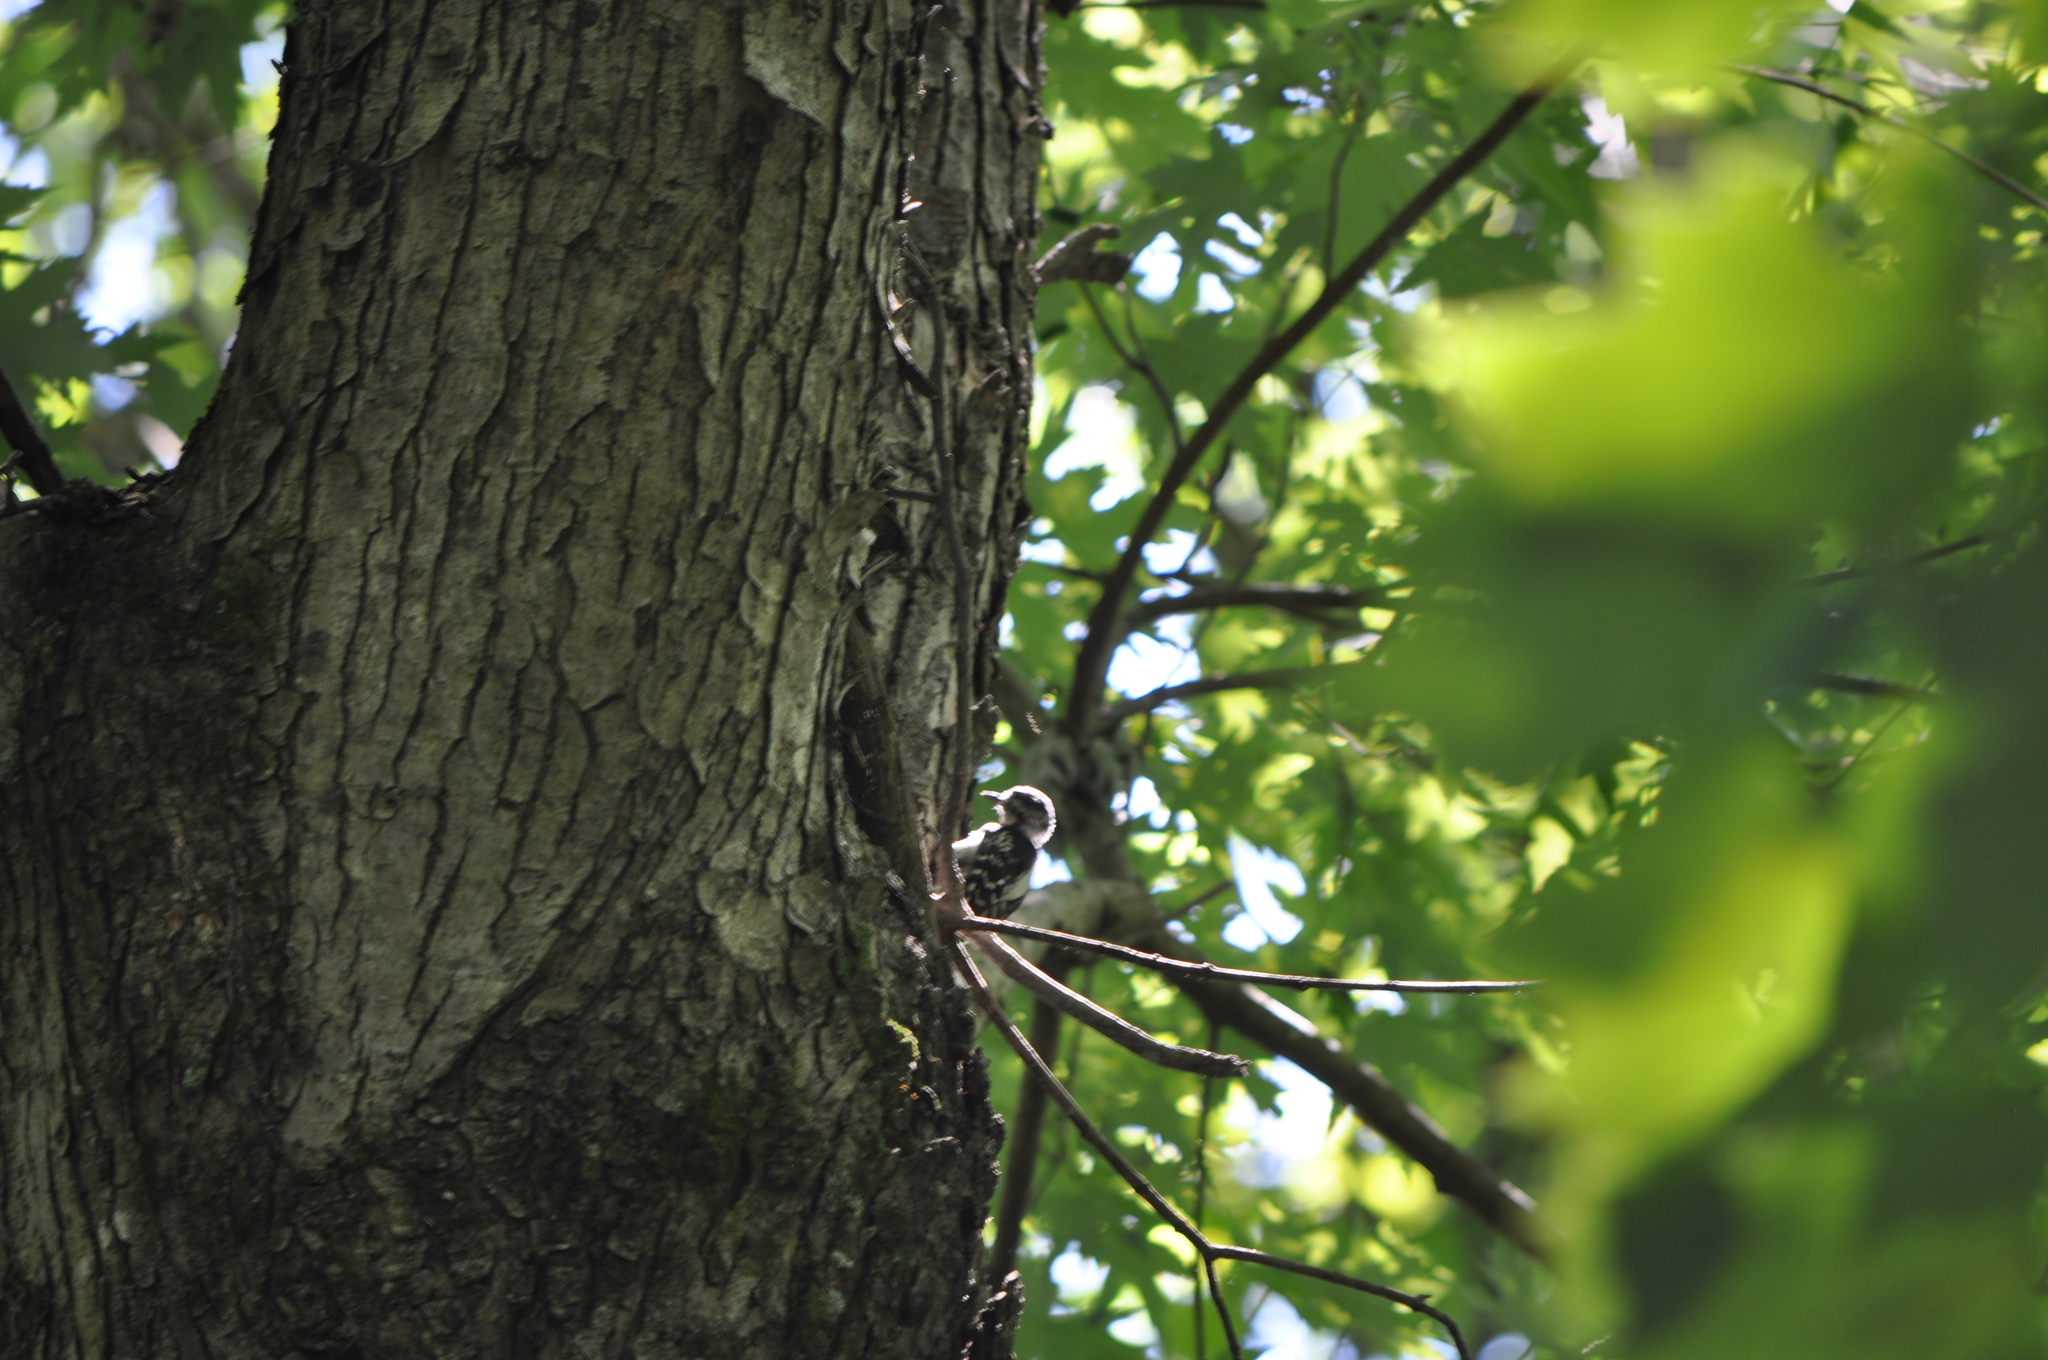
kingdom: Animalia
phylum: Chordata
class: Aves
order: Piciformes
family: Picidae
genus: Dryobates
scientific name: Dryobates pubescens
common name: Downy woodpecker
